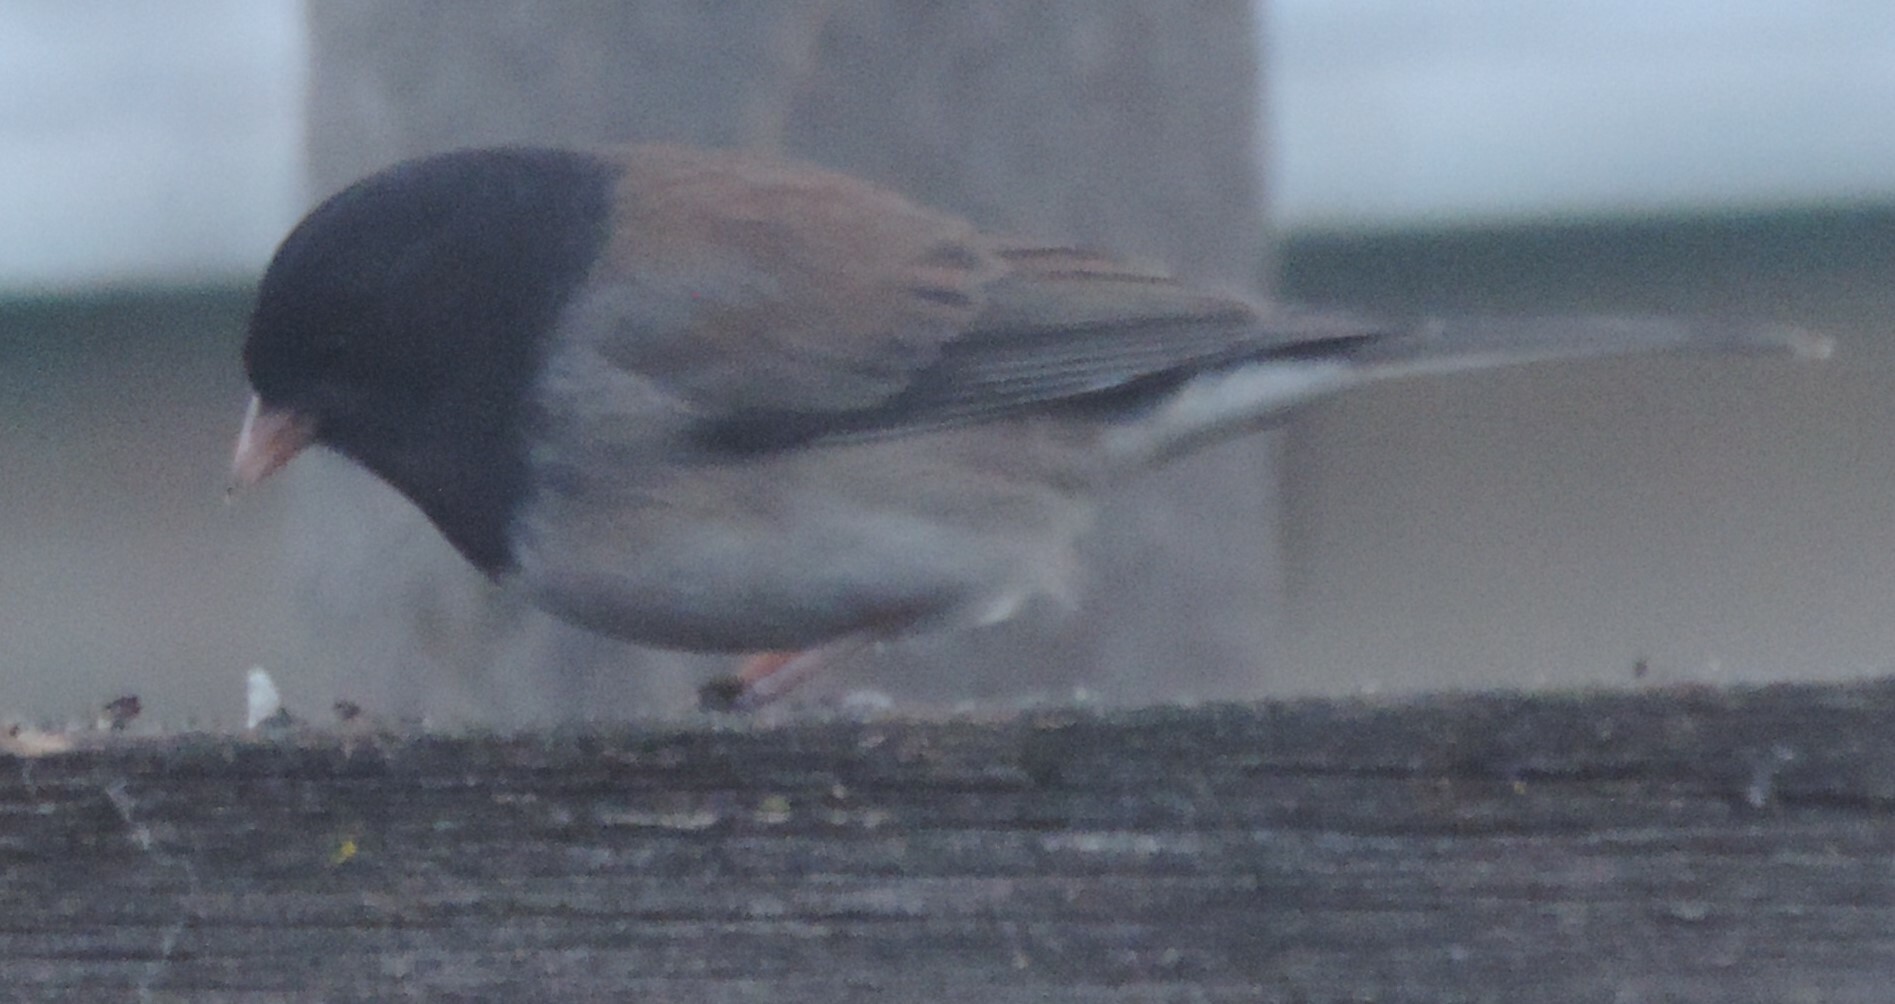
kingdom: Animalia
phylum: Chordata
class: Aves
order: Passeriformes
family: Passerellidae
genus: Junco
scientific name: Junco hyemalis
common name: Dark-eyed junco
